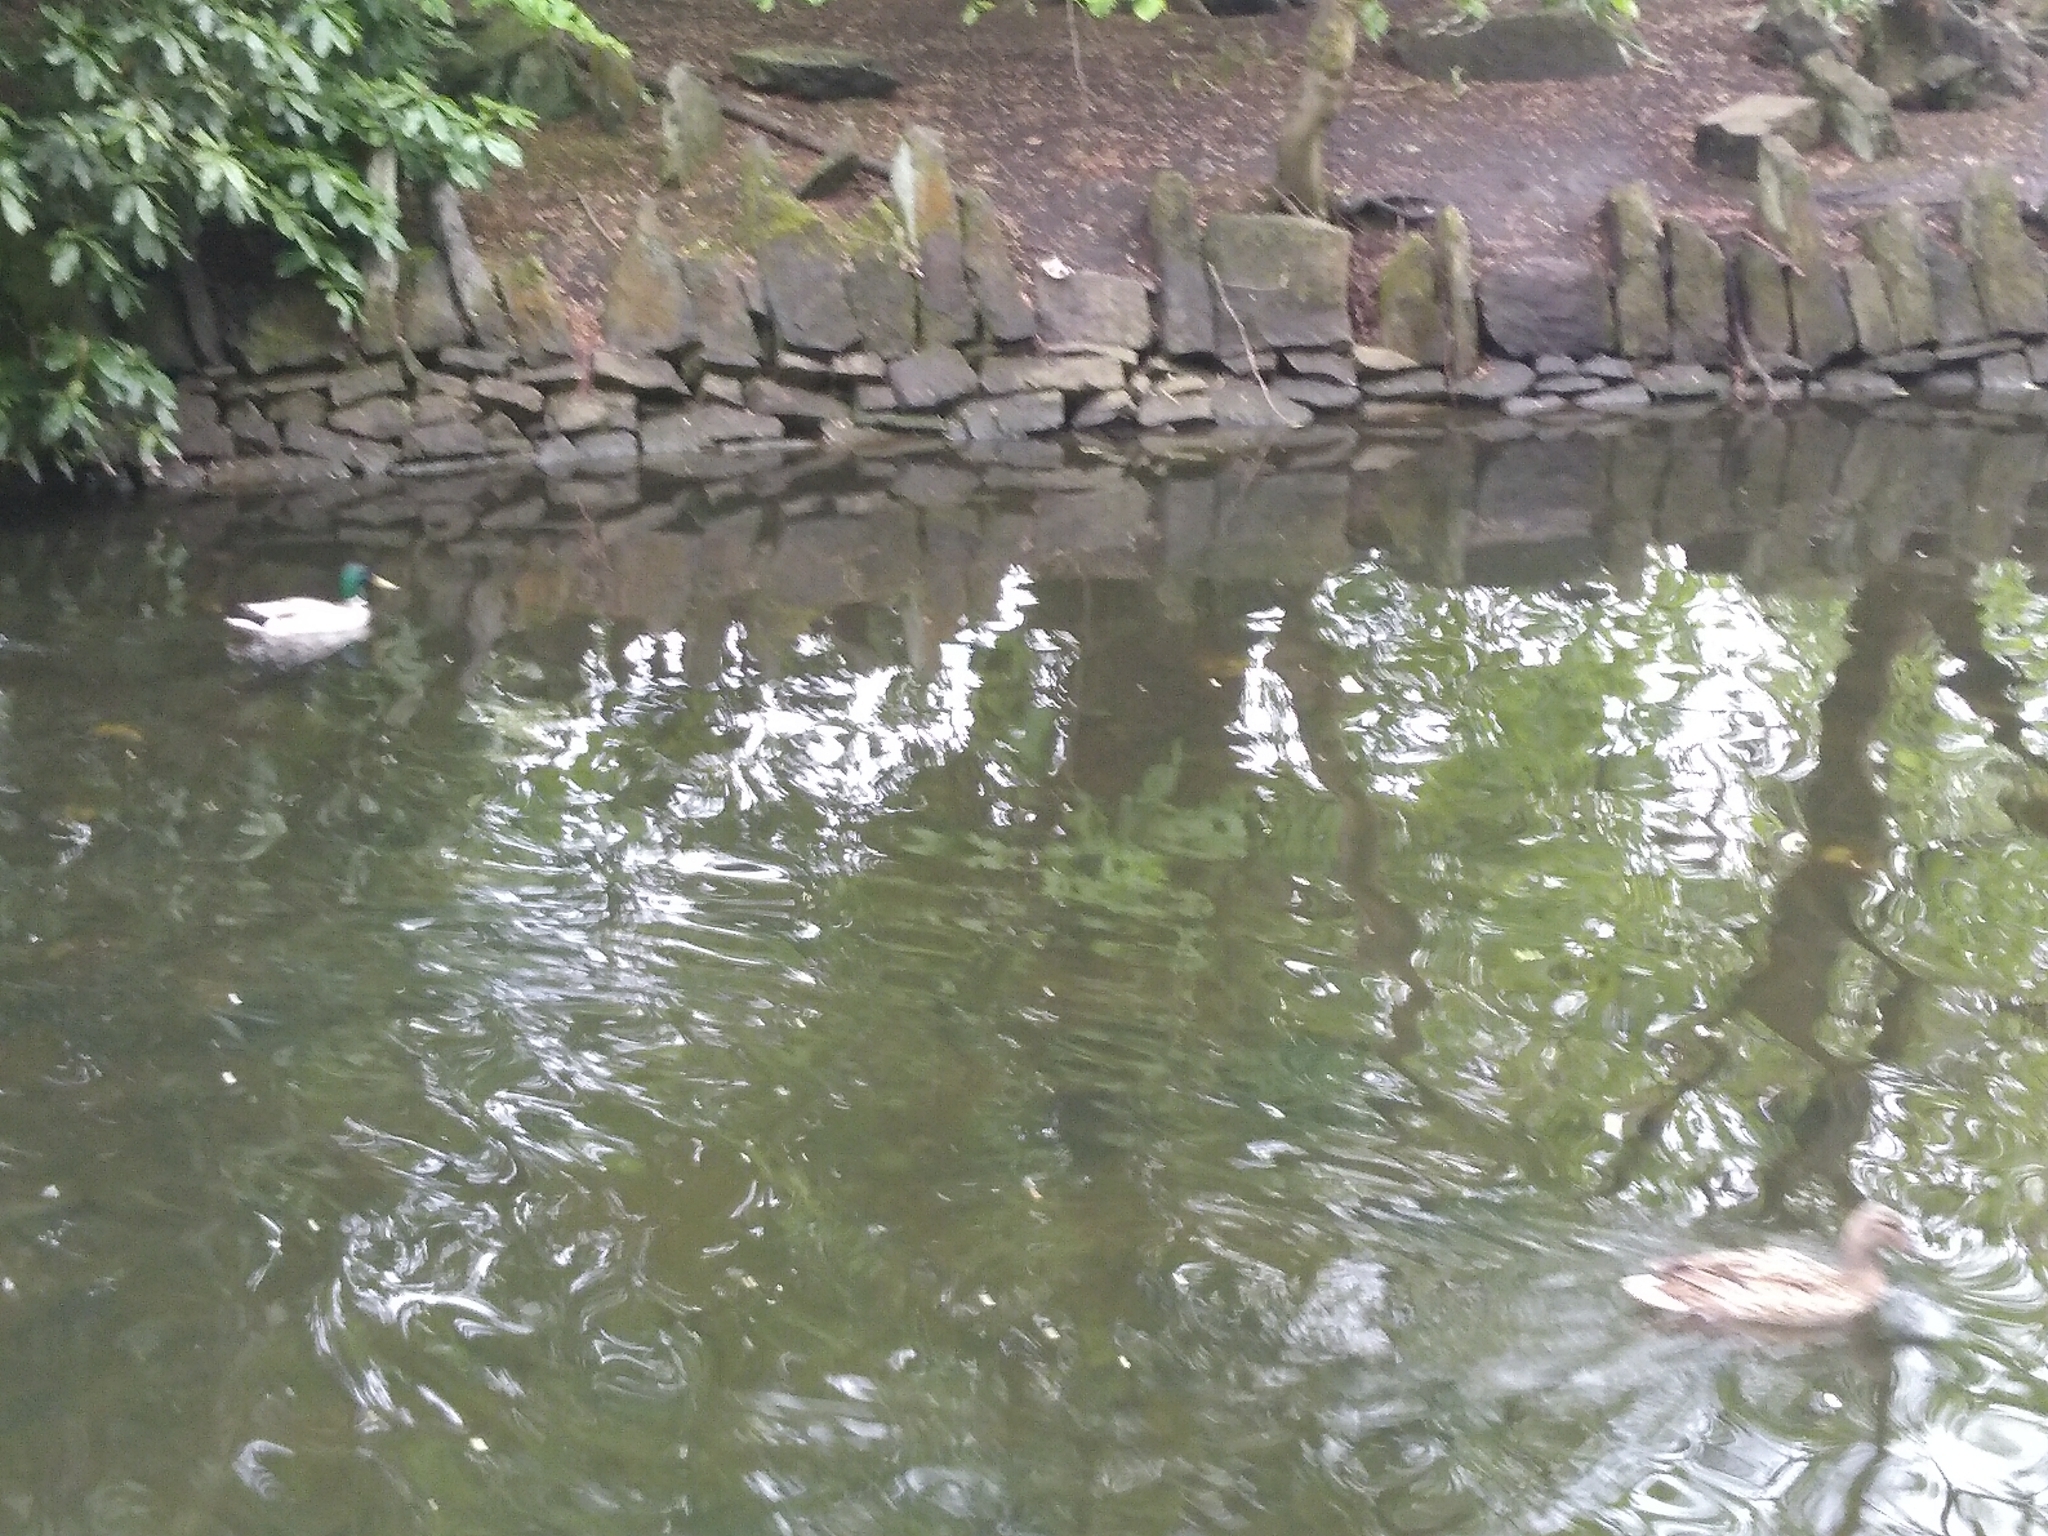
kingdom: Animalia
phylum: Chordata
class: Aves
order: Anseriformes
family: Anatidae
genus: Anas
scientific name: Anas platyrhynchos
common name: Mallard
